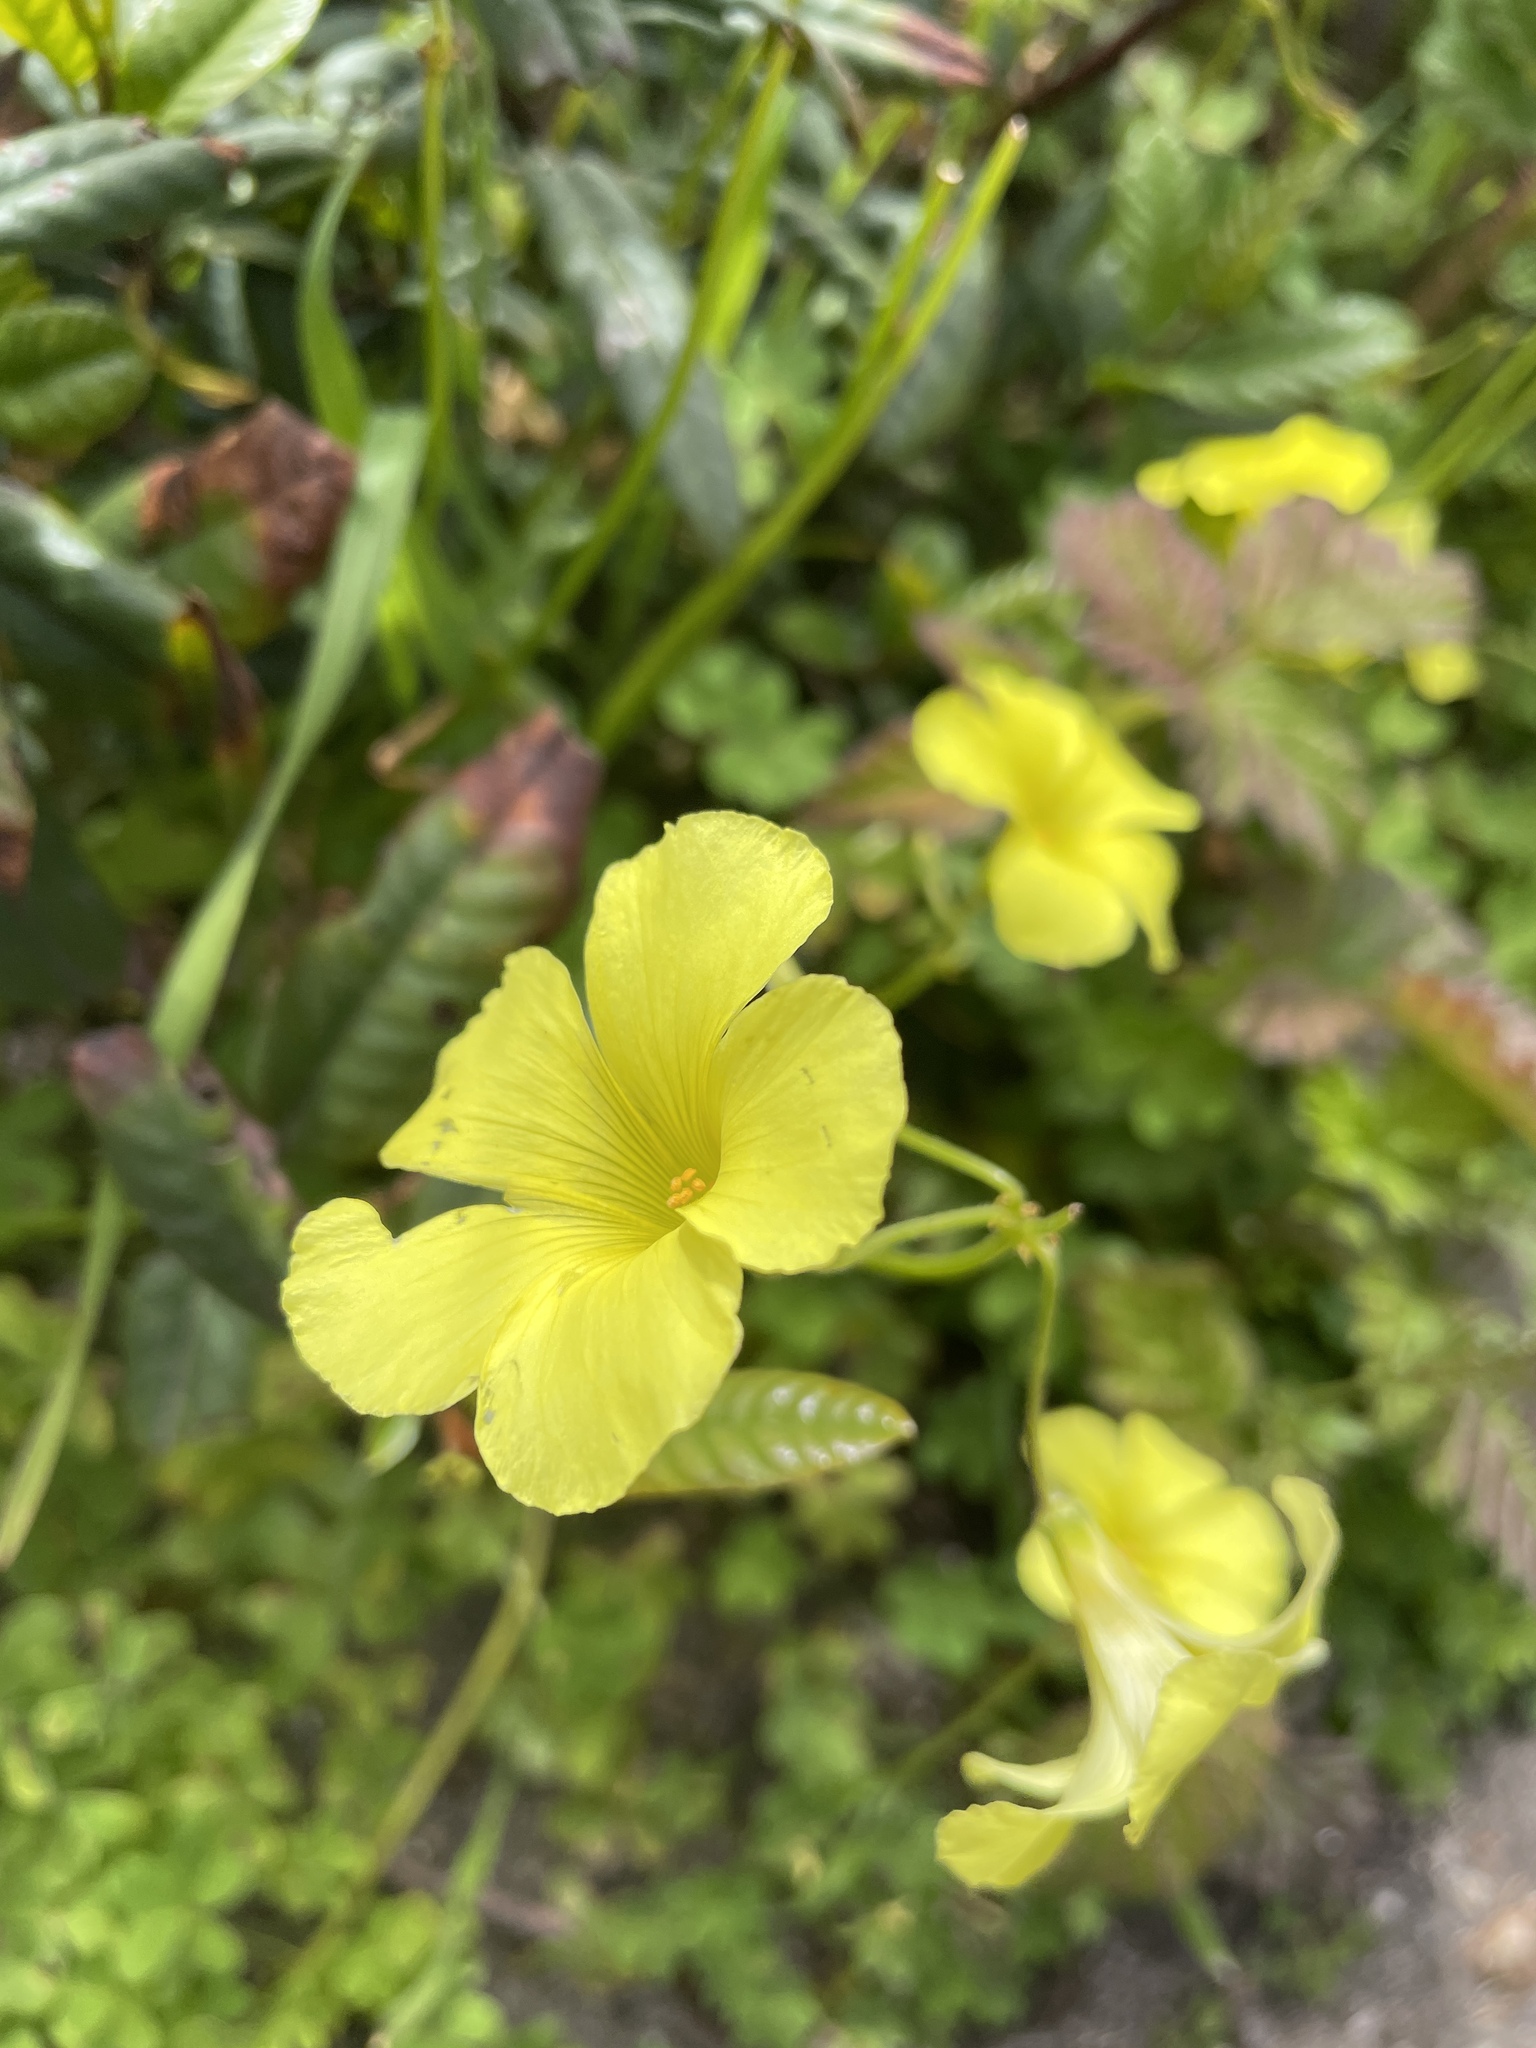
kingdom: Plantae
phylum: Tracheophyta
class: Magnoliopsida
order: Oxalidales
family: Oxalidaceae
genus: Oxalis
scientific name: Oxalis pes-caprae
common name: Bermuda-buttercup
